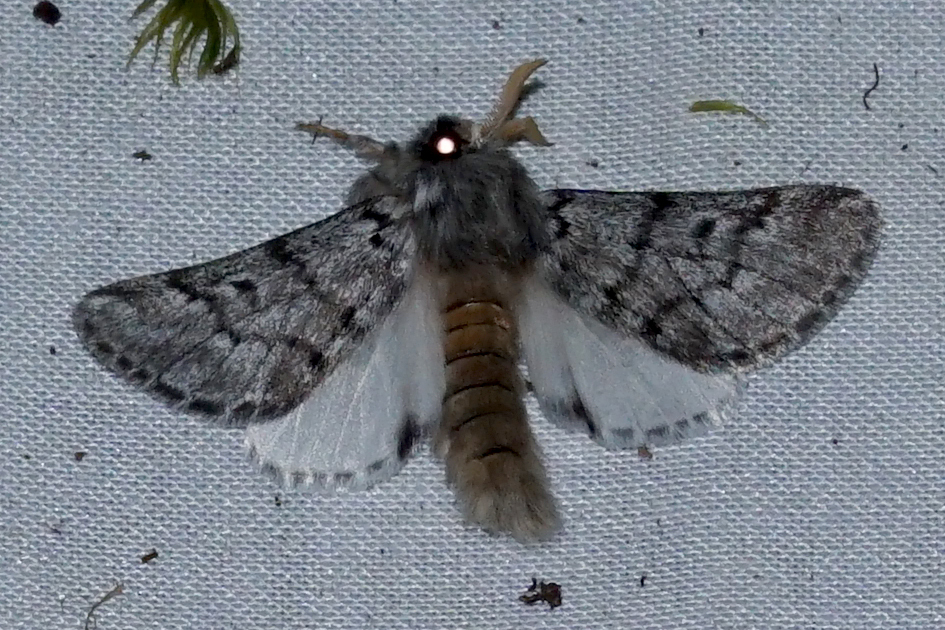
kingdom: Animalia
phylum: Arthropoda
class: Insecta
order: Lepidoptera
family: Notodontidae
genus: Thaumetopoea
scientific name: Thaumetopoea pityocampa
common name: Pine processionary
